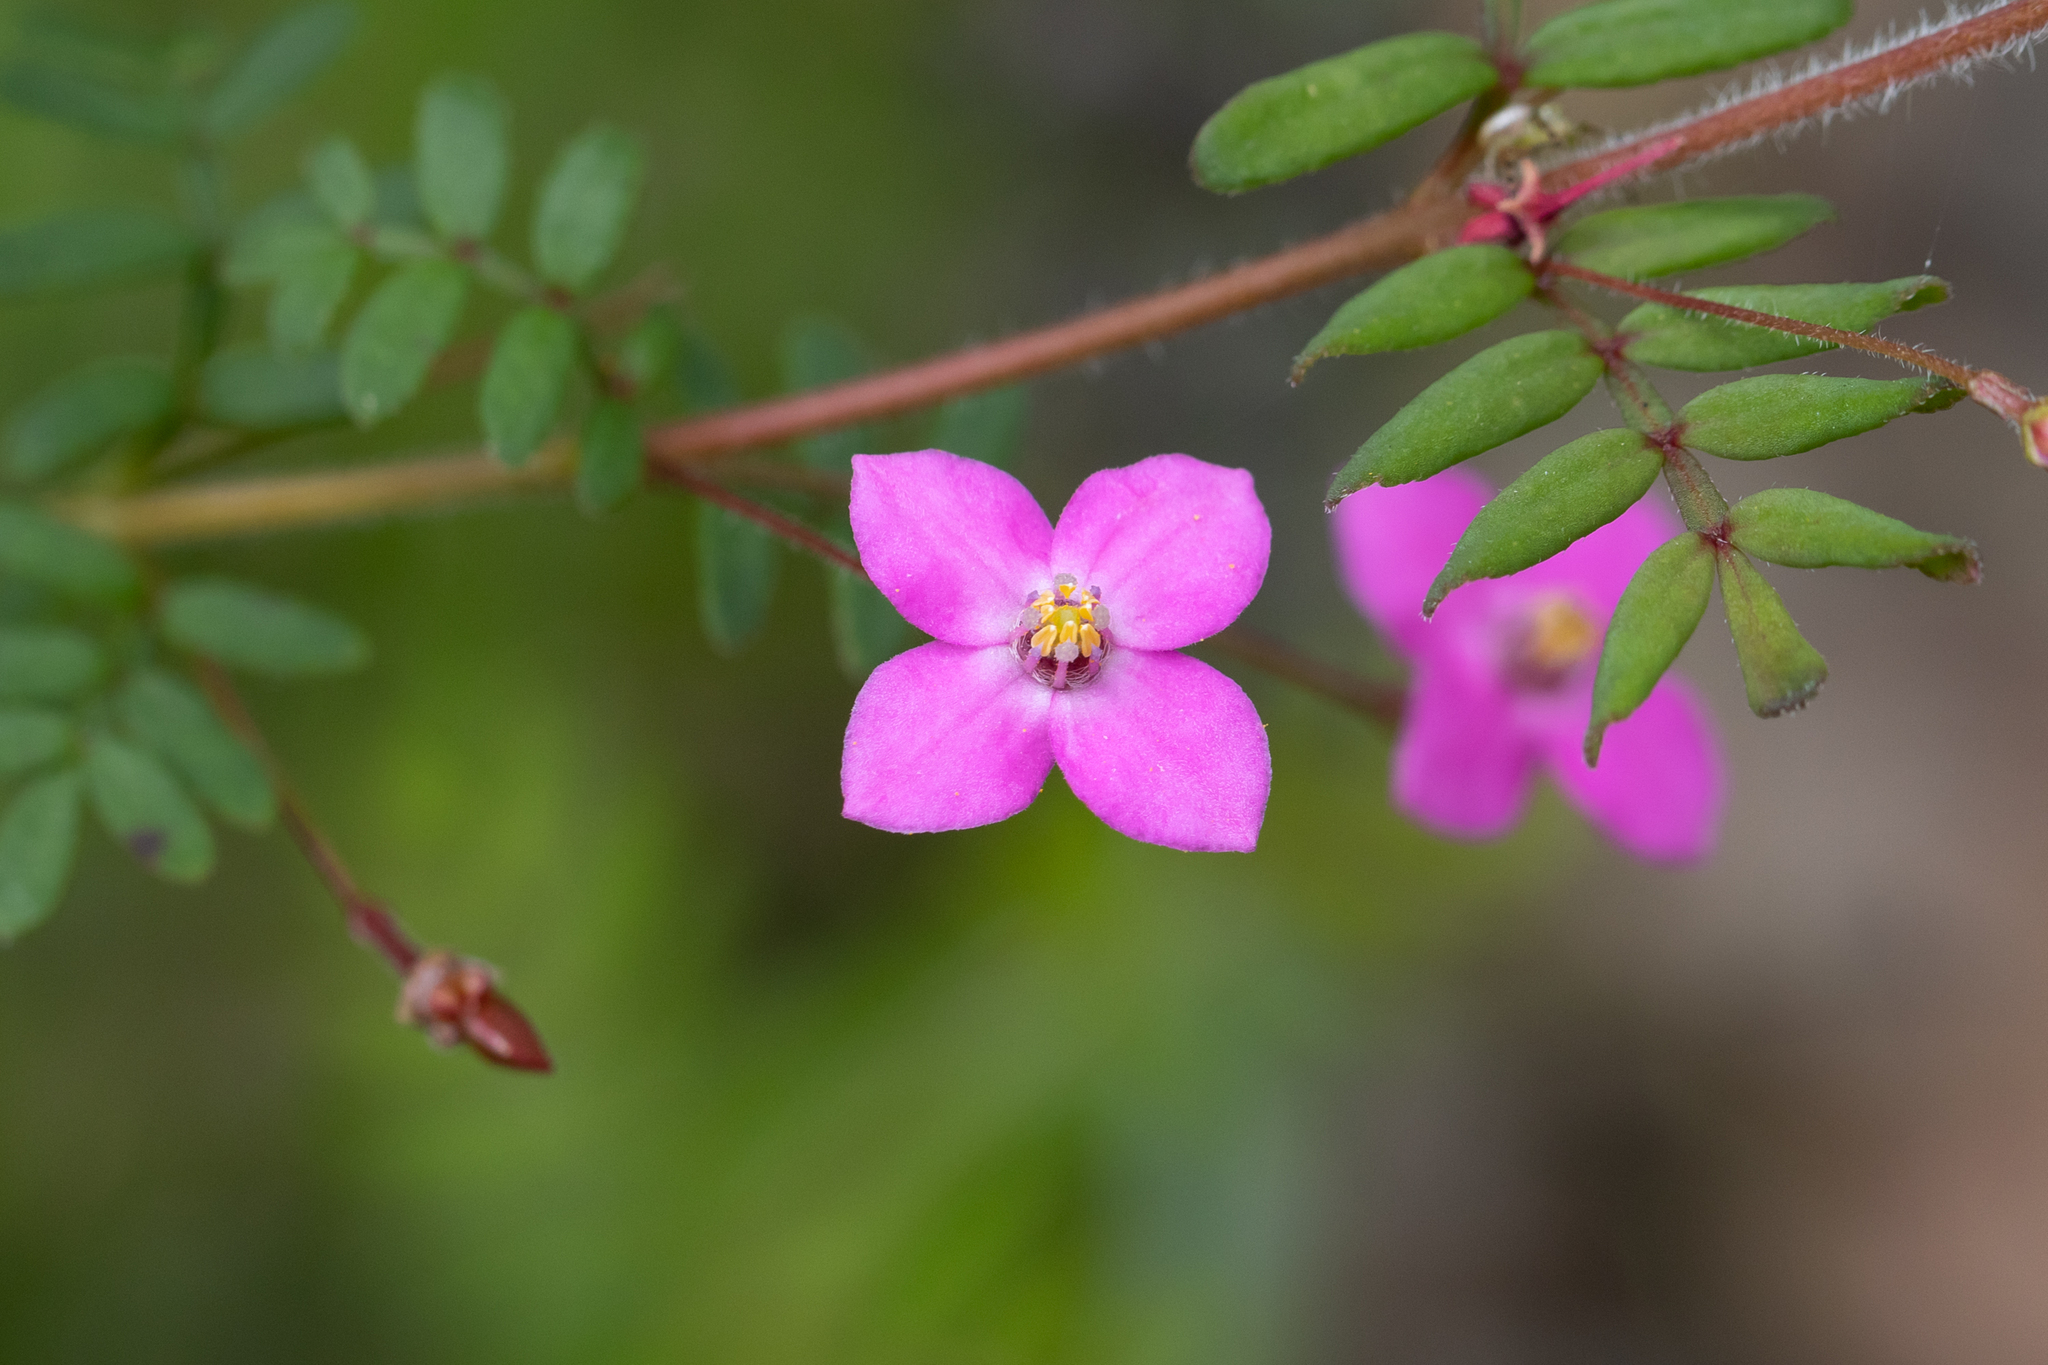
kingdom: Plantae
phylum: Tracheophyta
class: Magnoliopsida
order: Sapindales
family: Rutaceae
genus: Boronia
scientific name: Boronia gracilipes
